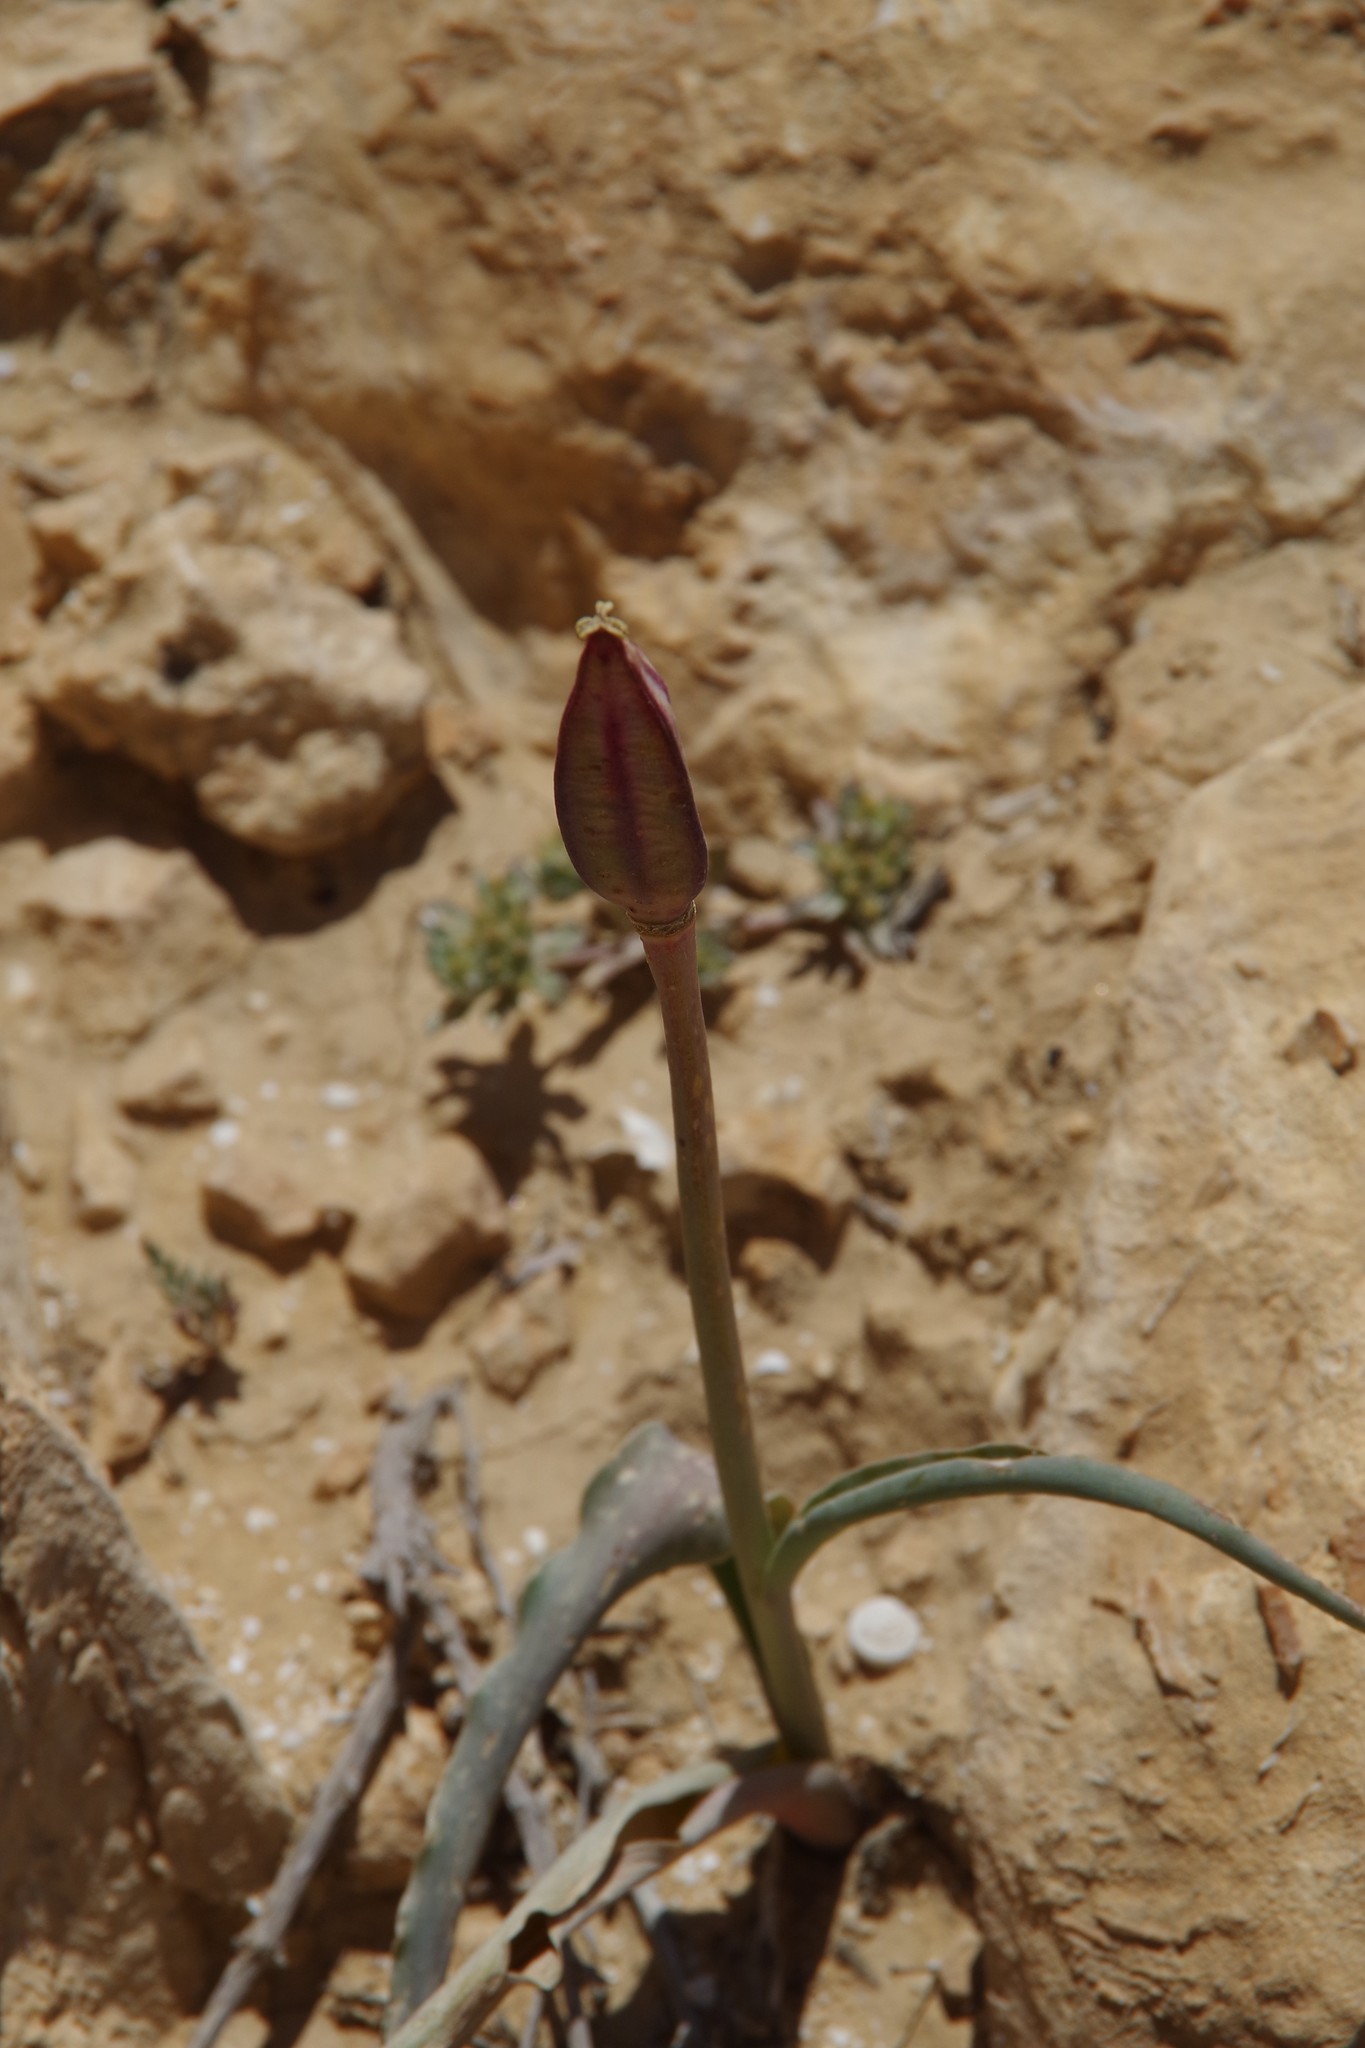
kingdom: Plantae
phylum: Tracheophyta
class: Liliopsida
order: Liliales
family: Liliaceae
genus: Tulipa
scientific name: Tulipa biflora
